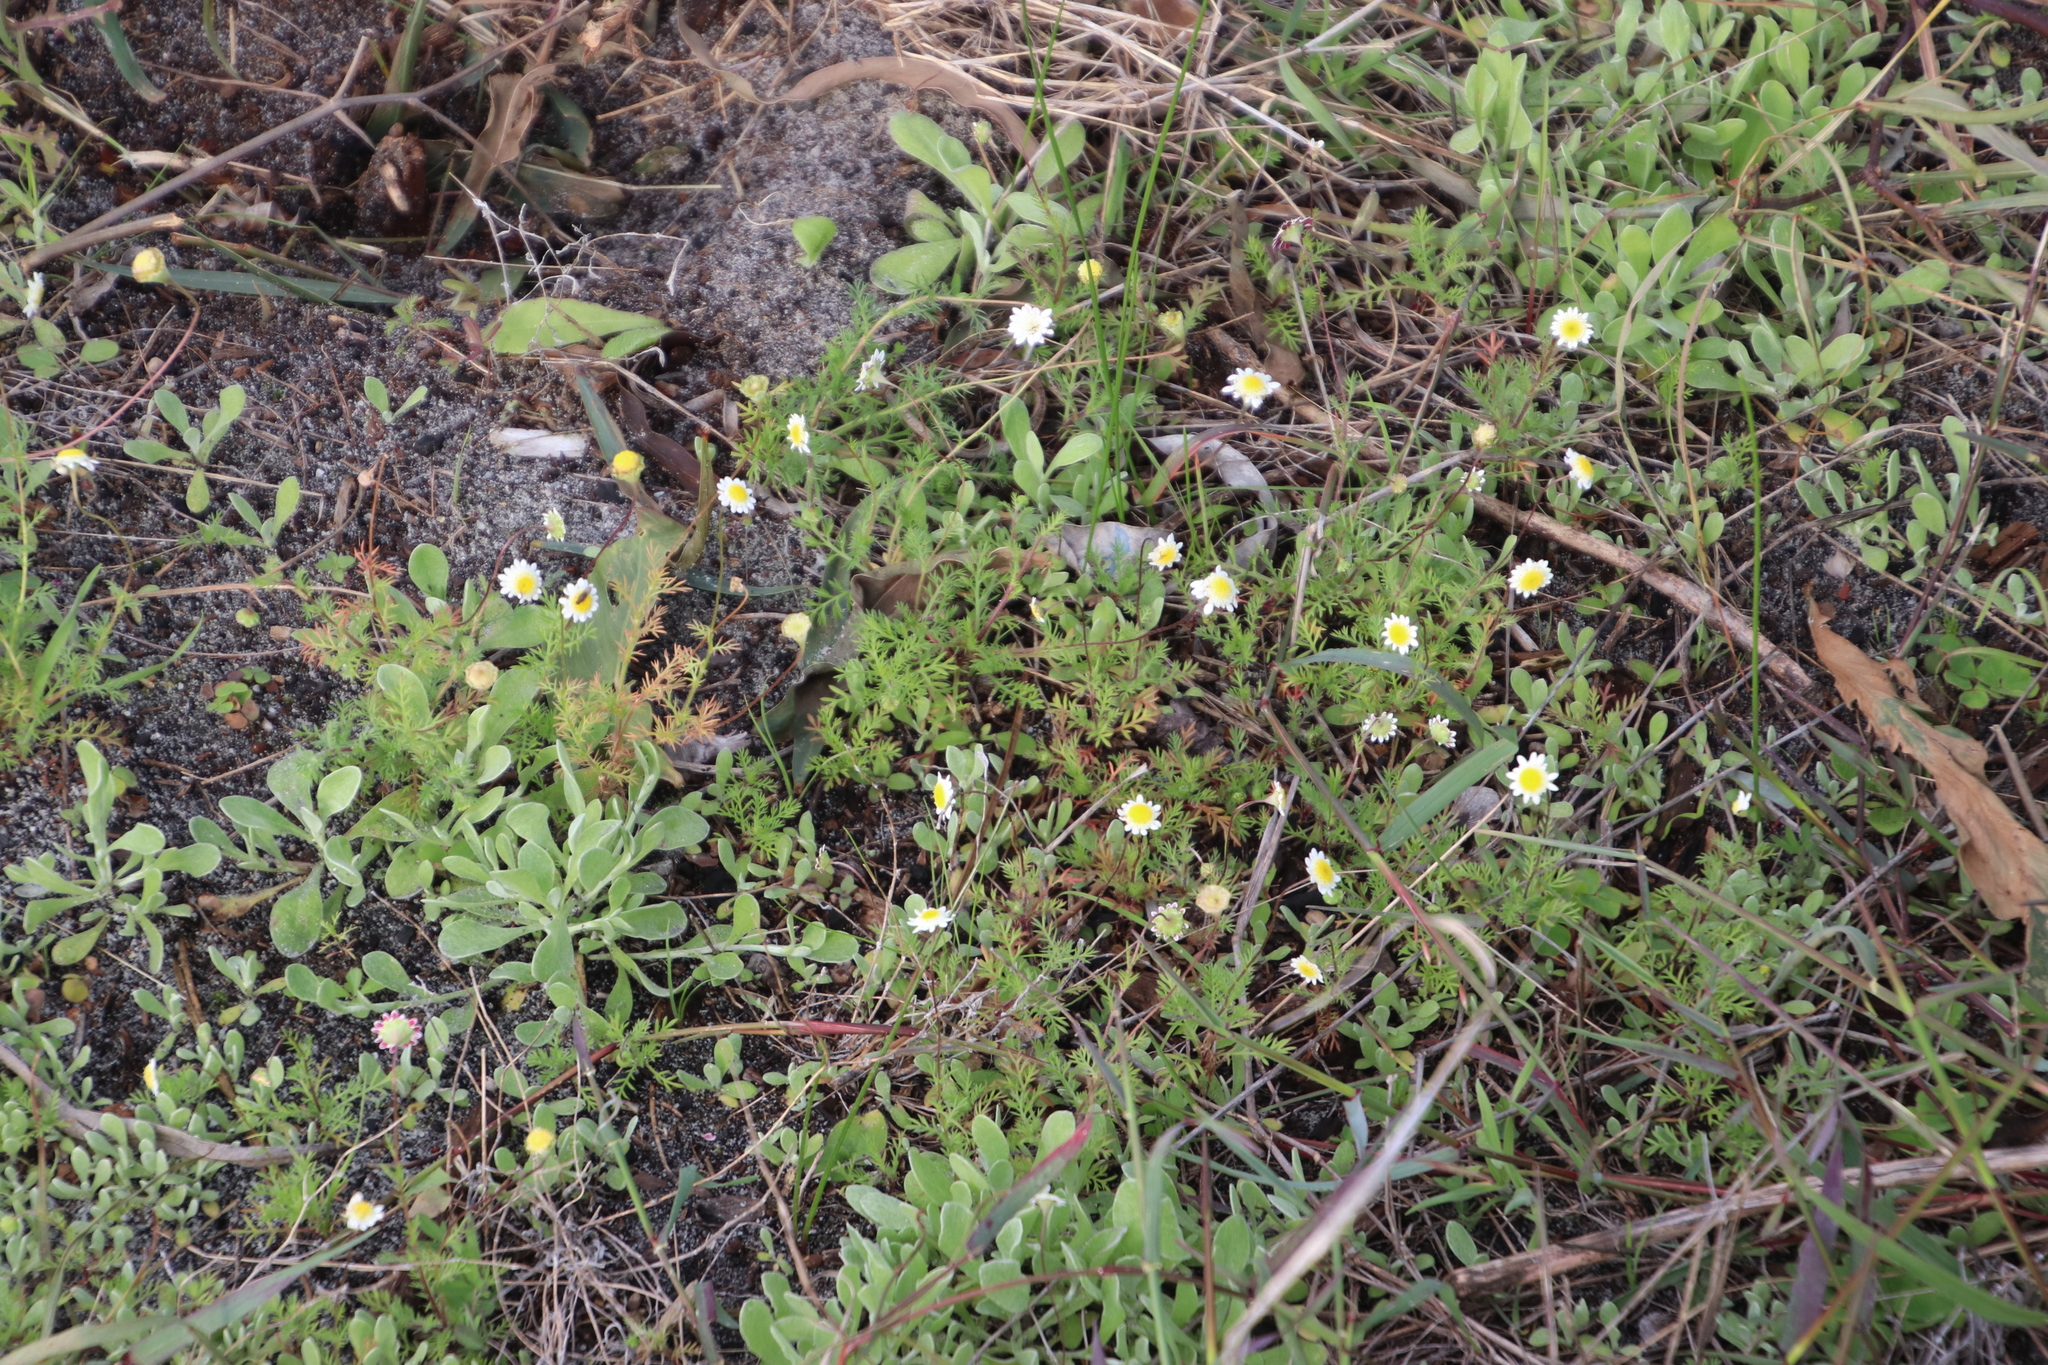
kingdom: Plantae
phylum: Tracheophyta
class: Magnoliopsida
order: Asterales
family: Asteraceae
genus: Cotula
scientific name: Cotula turbinata
